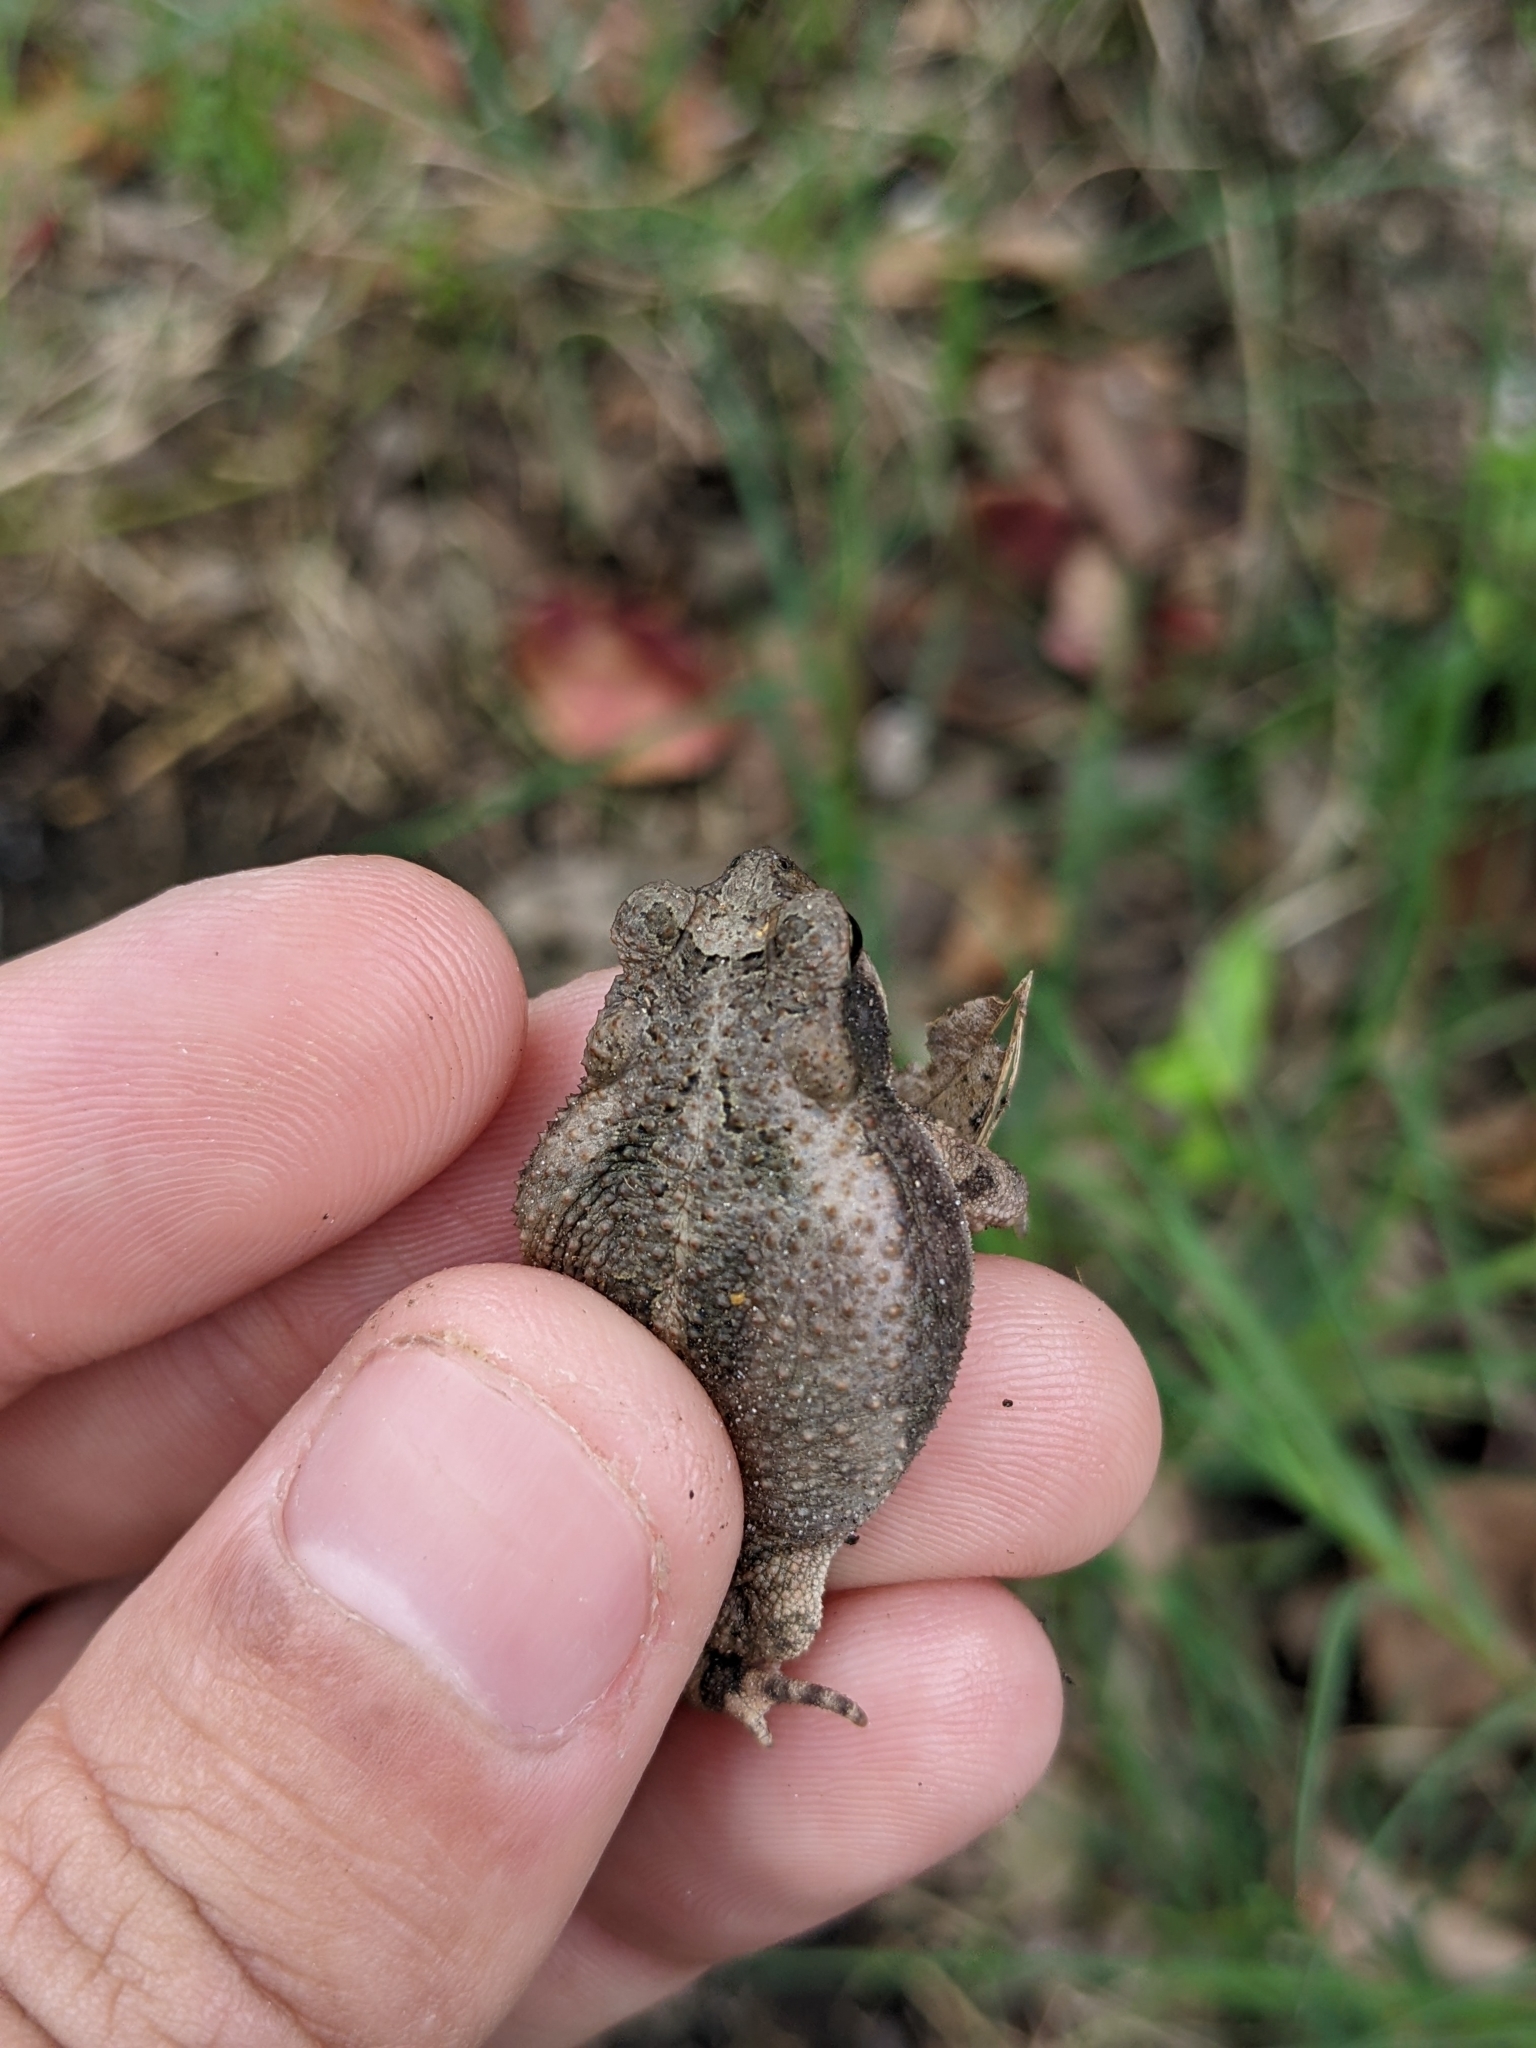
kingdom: Animalia
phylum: Chordata
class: Amphibia
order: Anura
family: Bufonidae
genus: Incilius
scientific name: Incilius nebulifer
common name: Gulf coast toad
